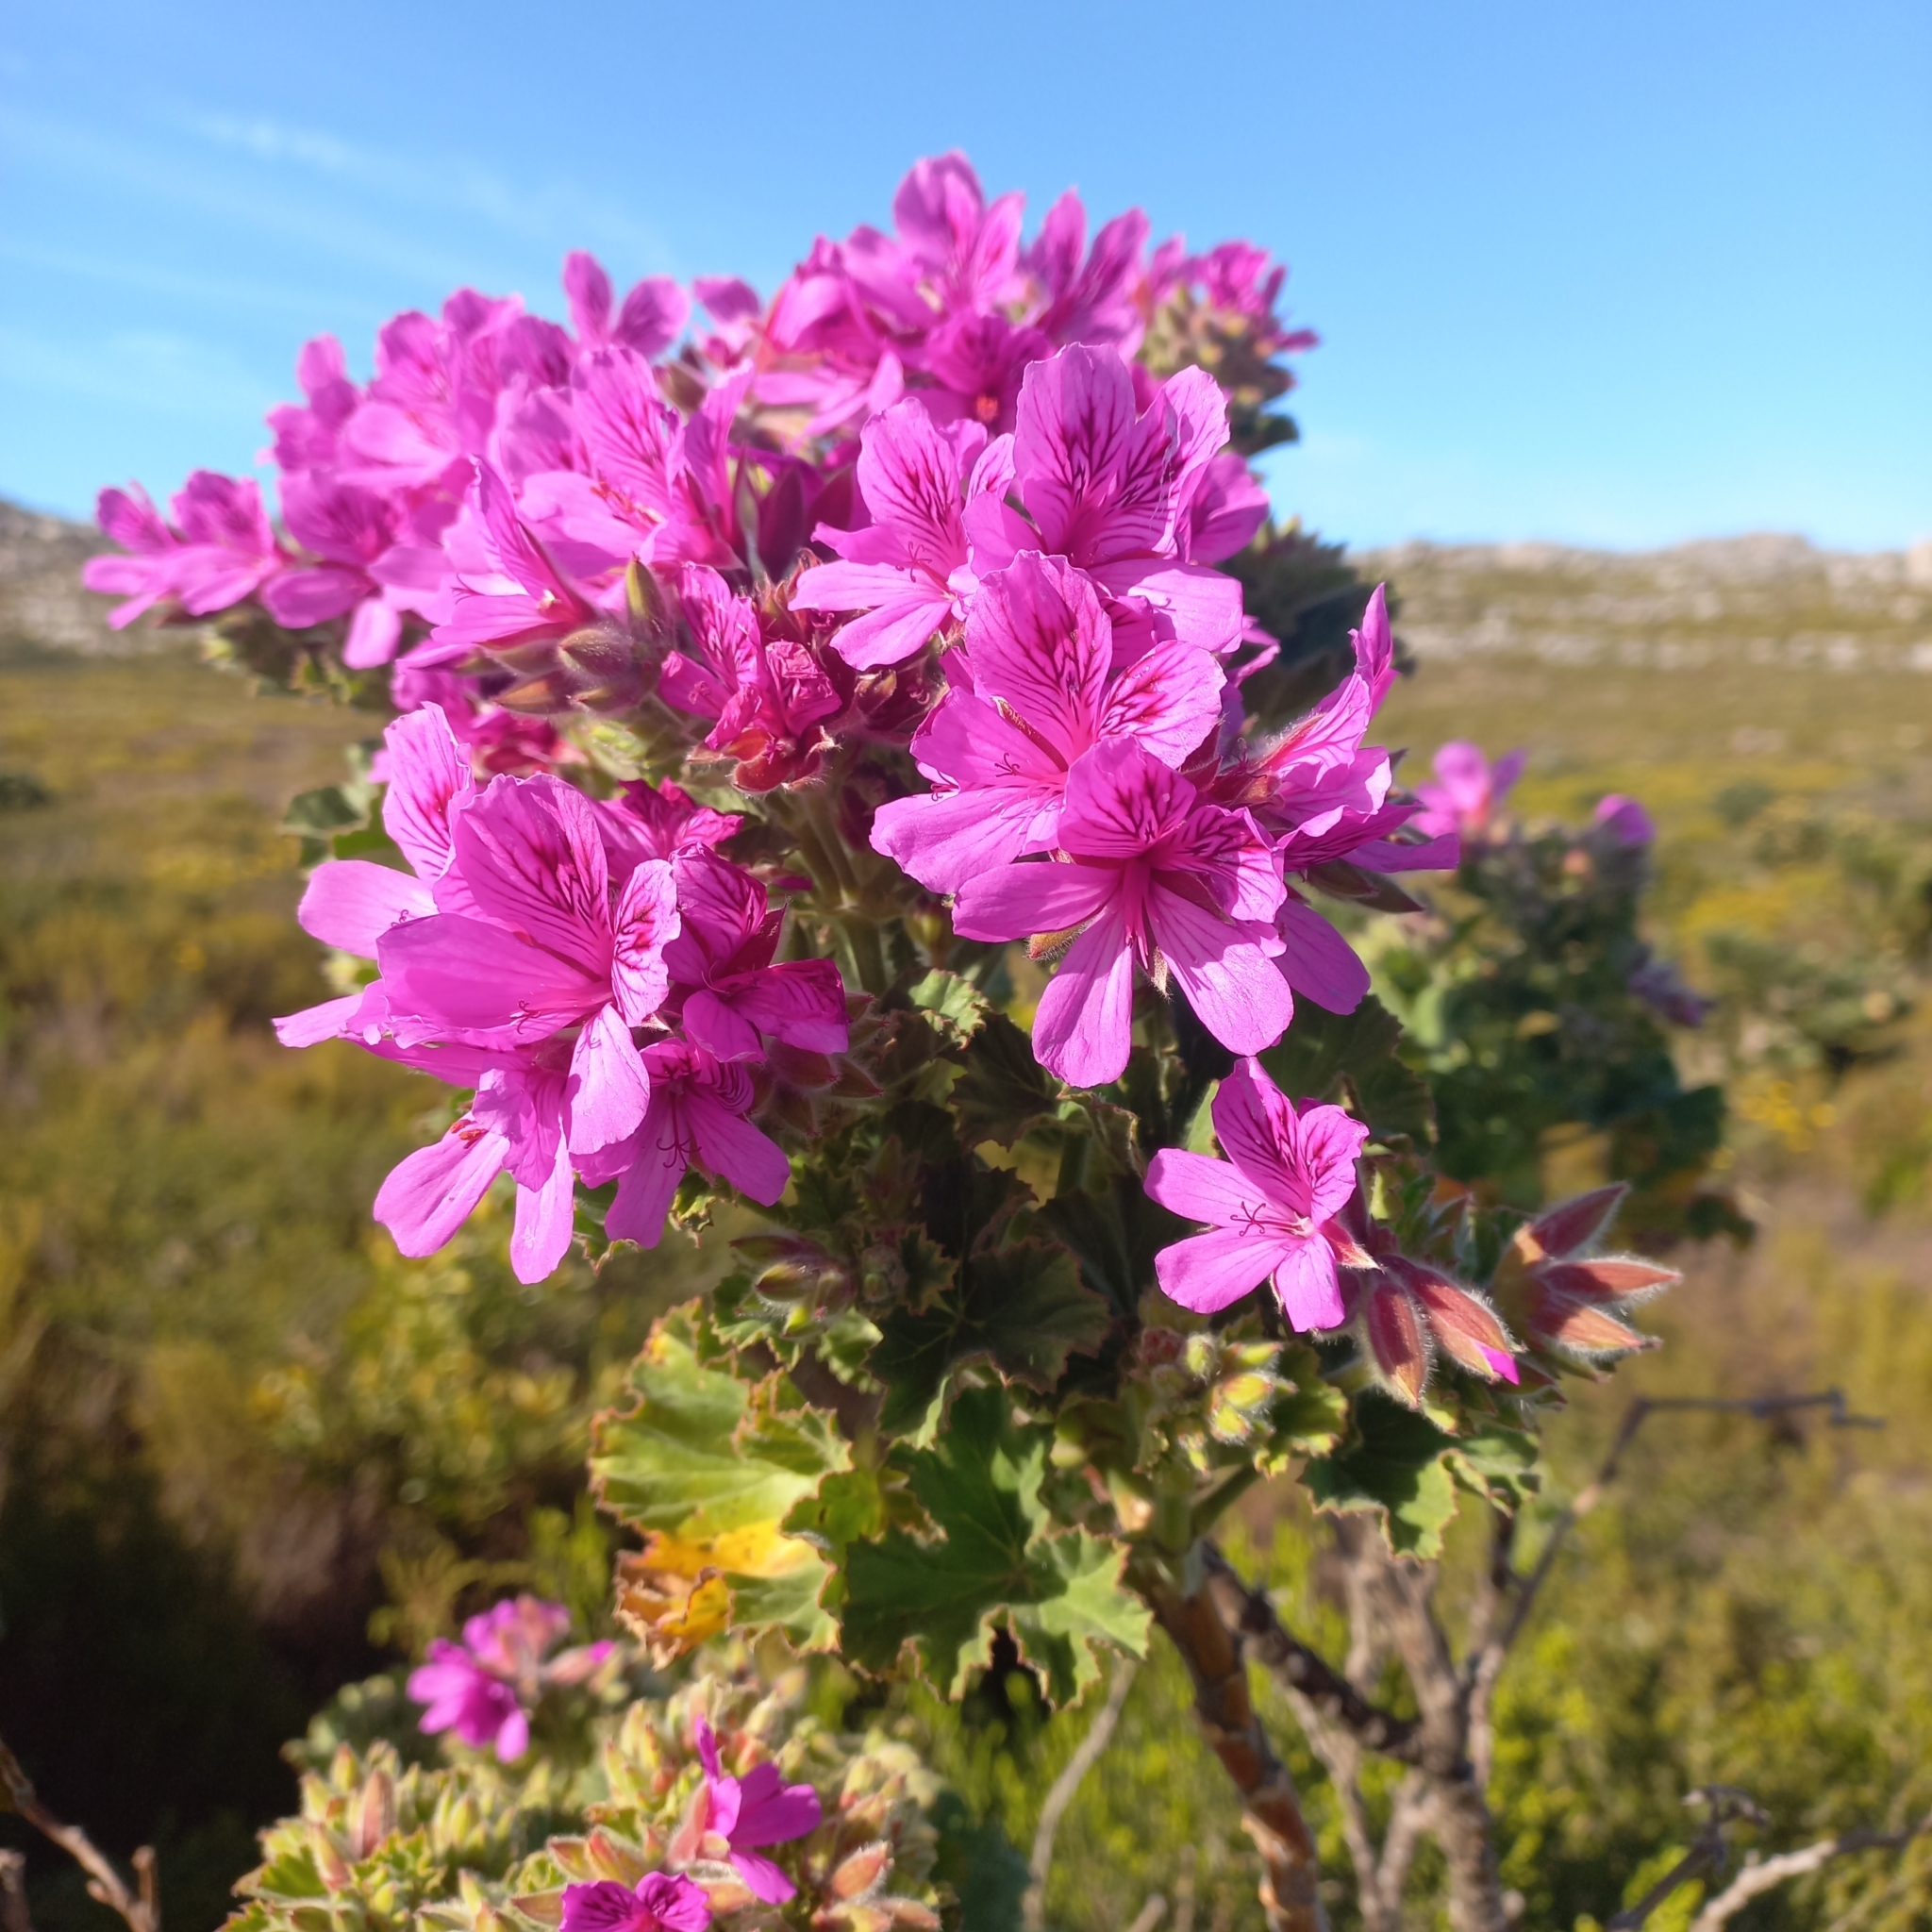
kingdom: Plantae
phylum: Tracheophyta
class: Magnoliopsida
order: Geraniales
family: Geraniaceae
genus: Pelargonium
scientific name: Pelargonium cucullatum
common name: Tree pelargonium
